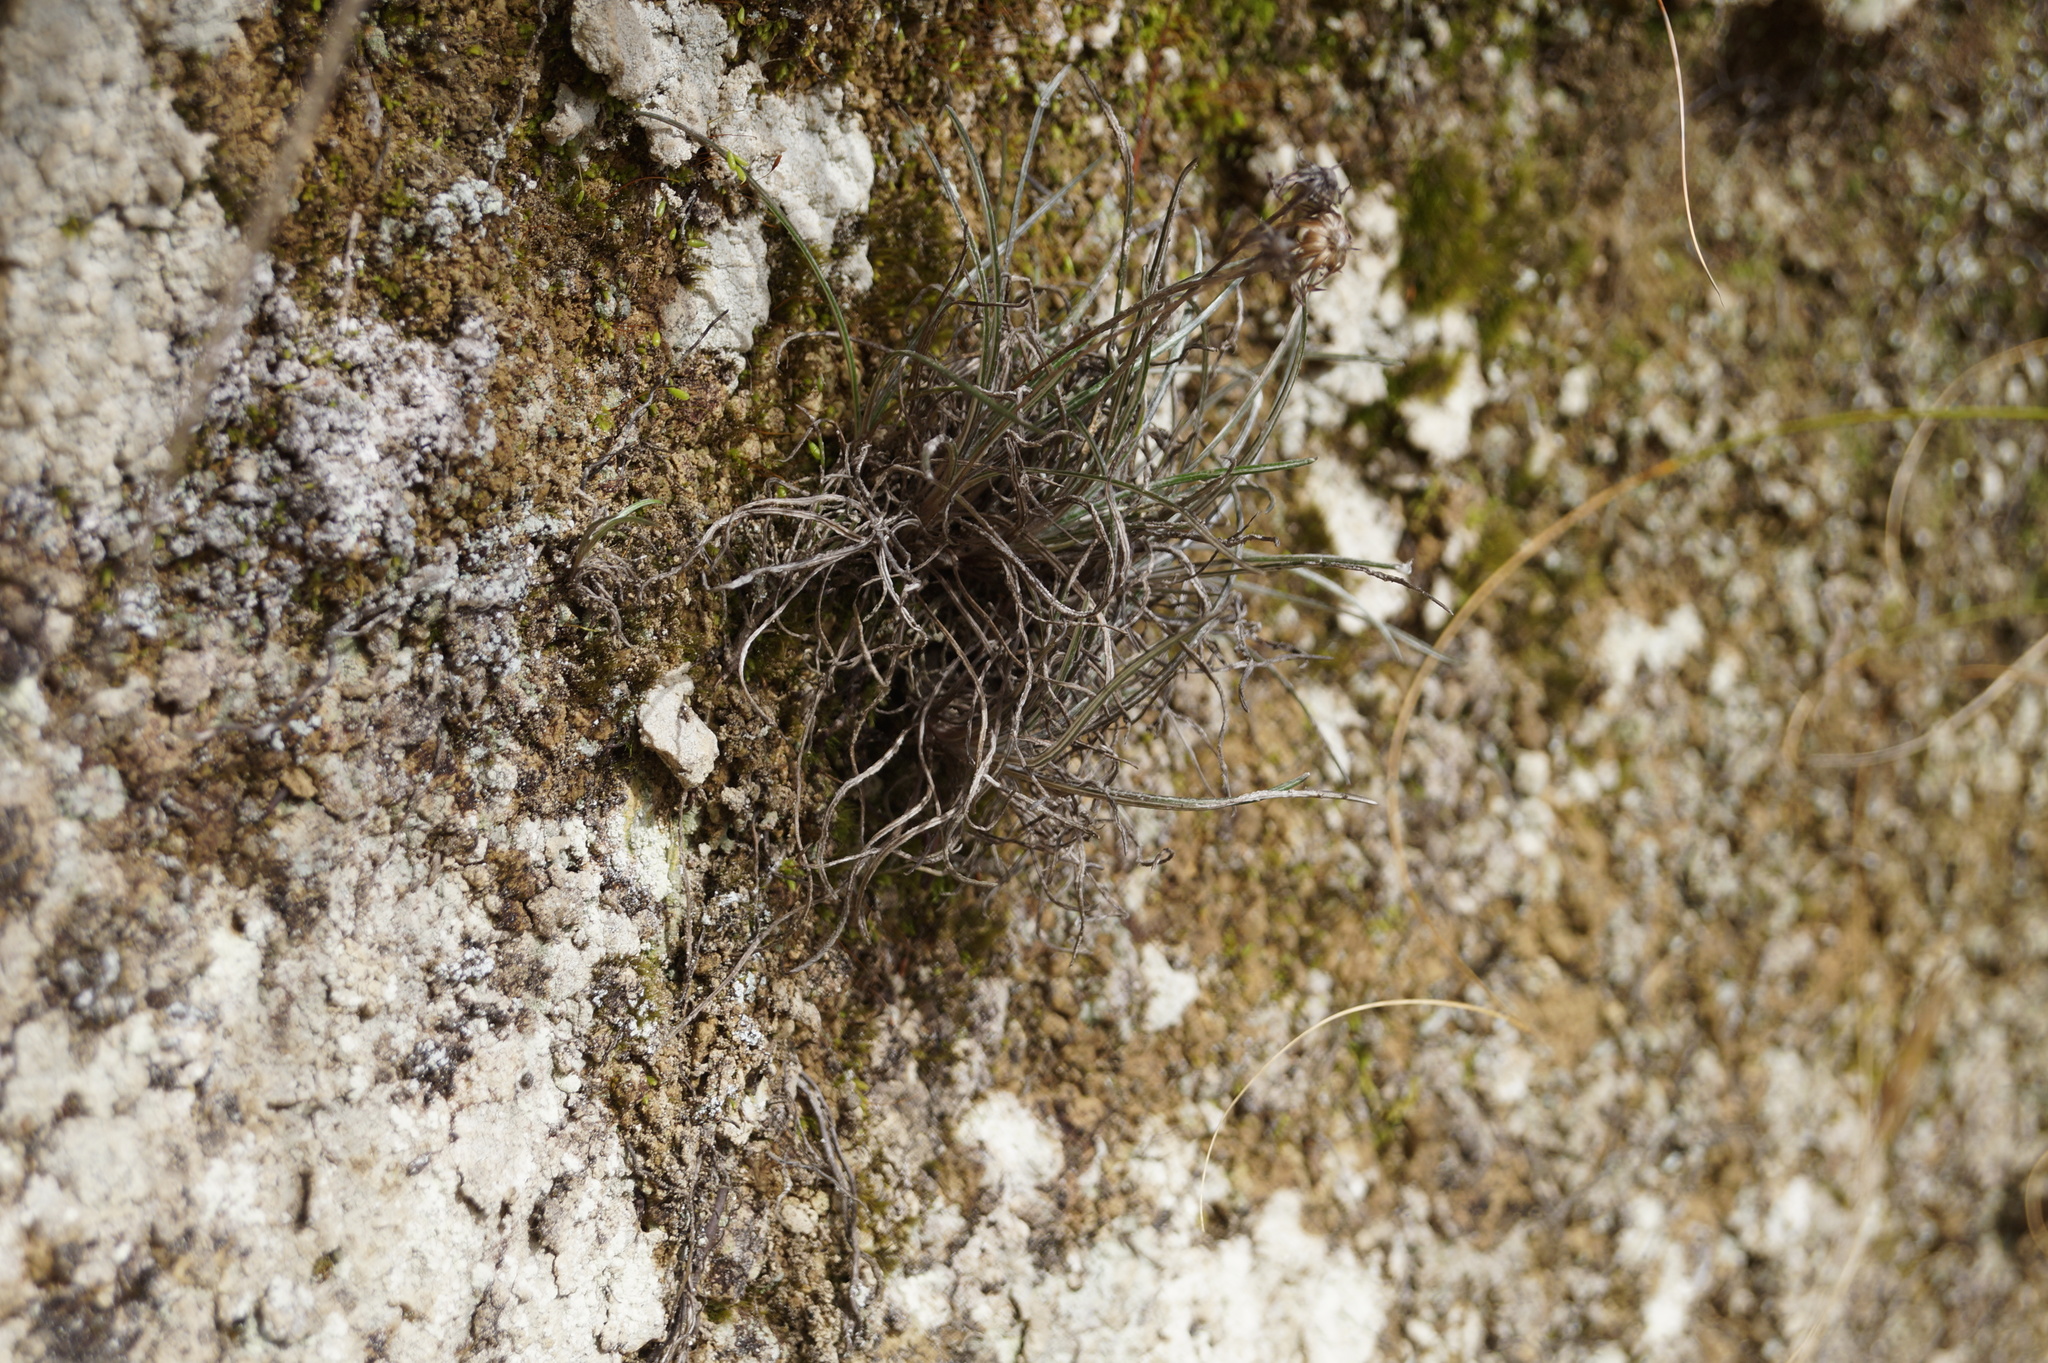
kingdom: Plantae
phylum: Tracheophyta
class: Magnoliopsida
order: Asterales
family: Asteraceae
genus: Celmisia
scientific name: Celmisia gracilenta
